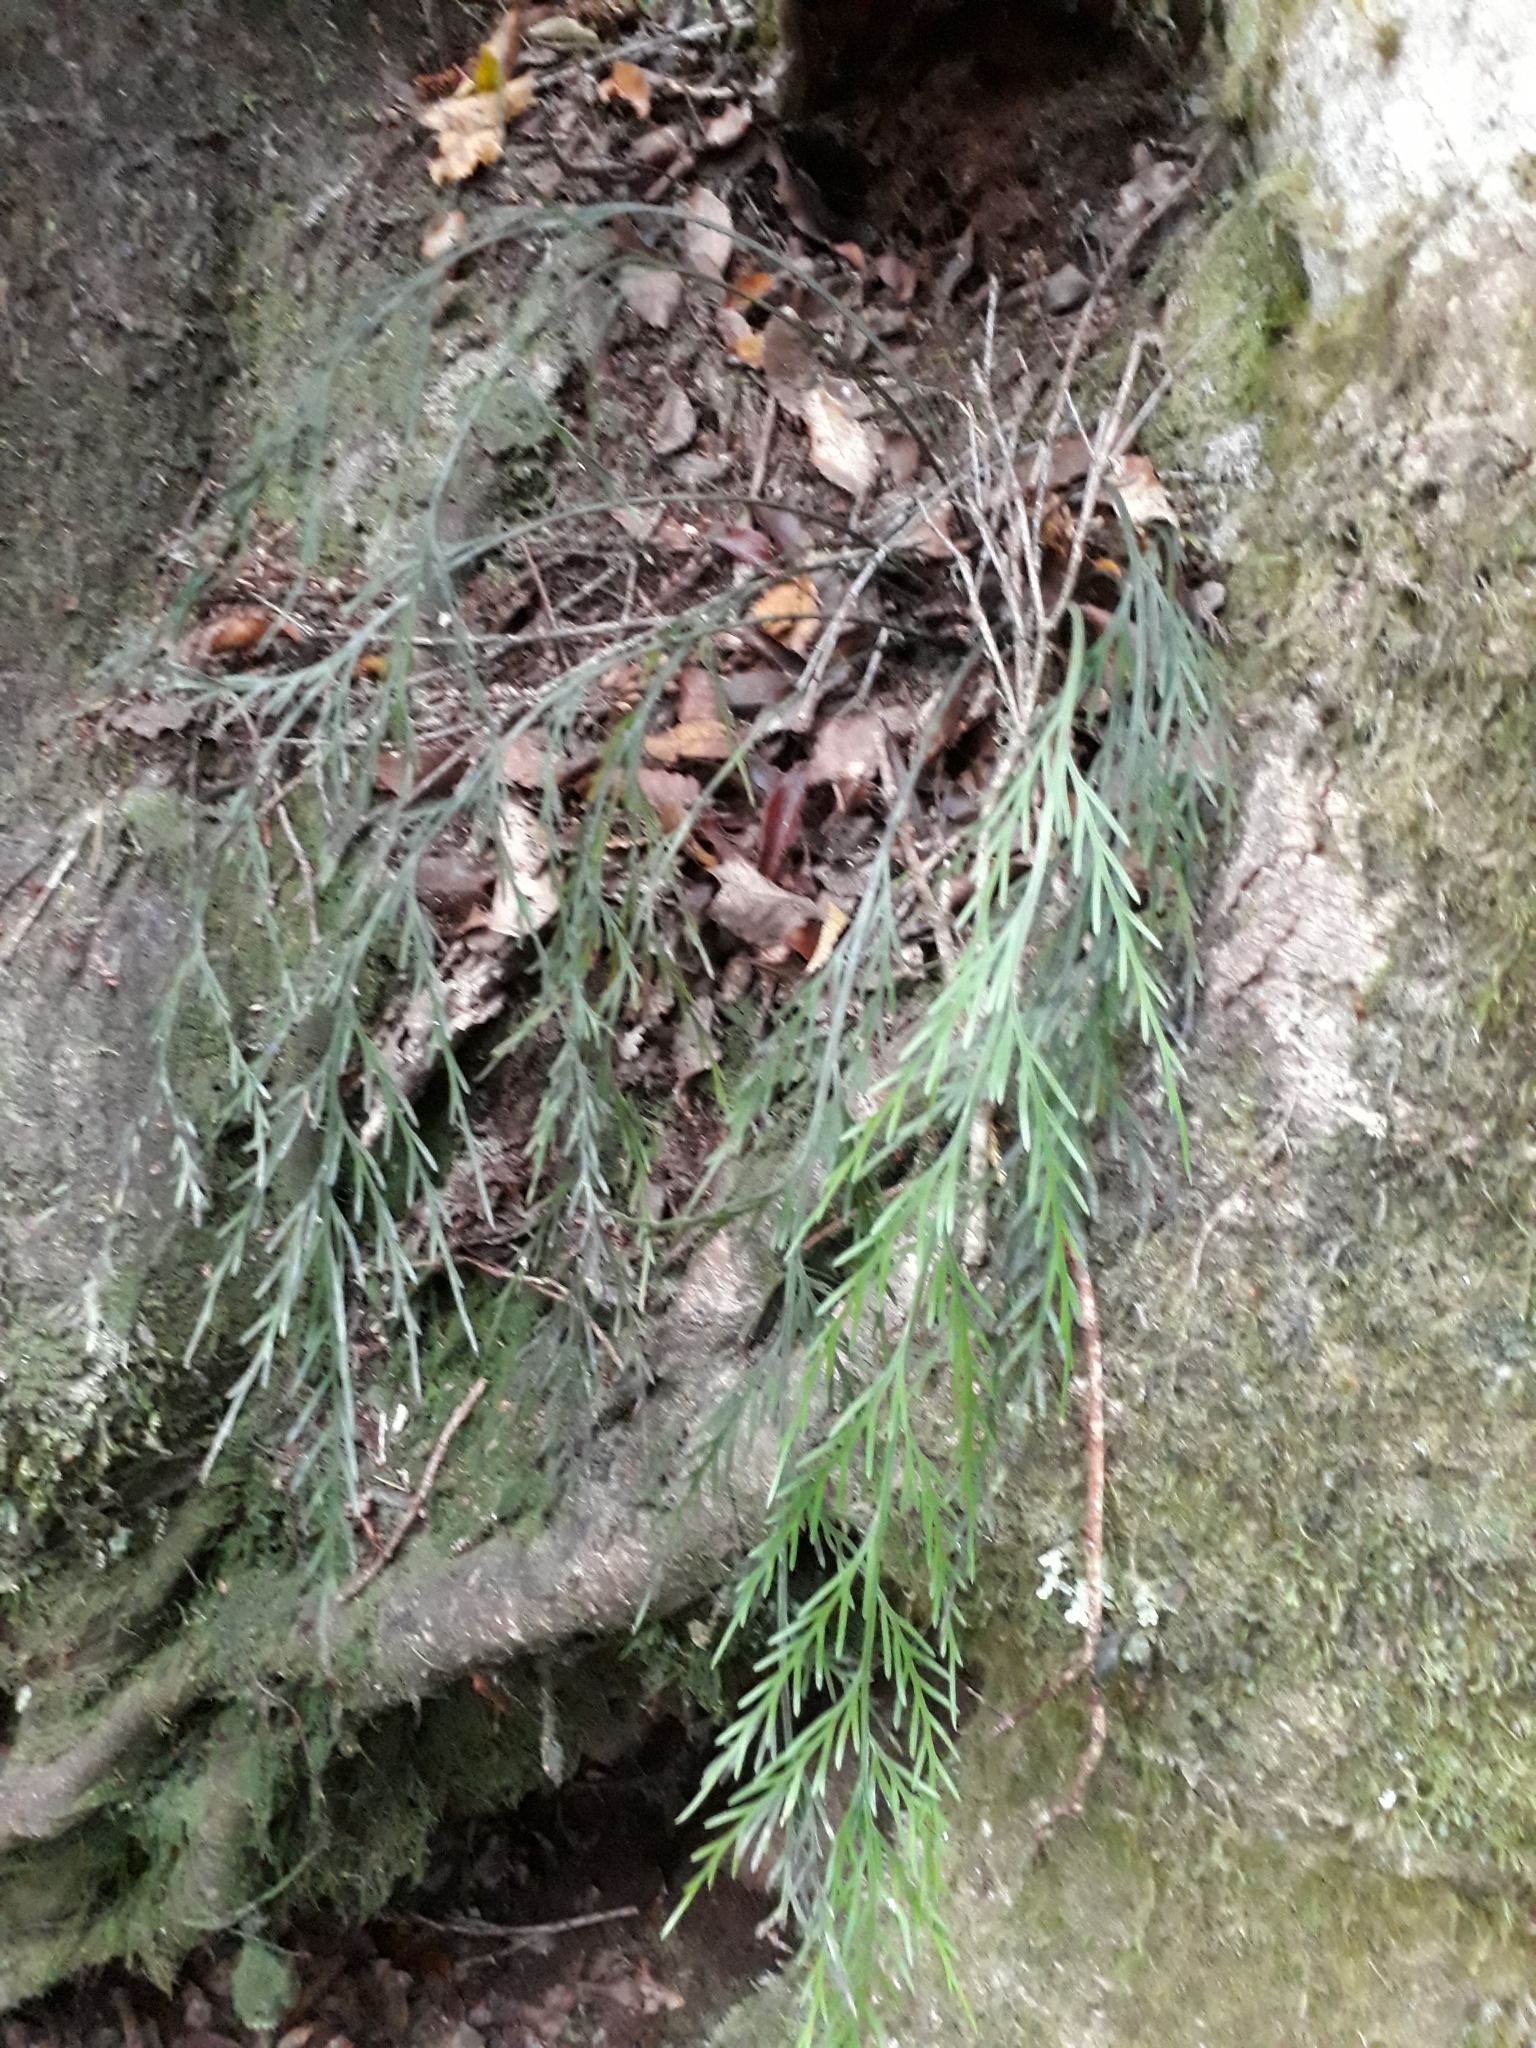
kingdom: Plantae
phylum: Tracheophyta
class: Polypodiopsida
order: Polypodiales
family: Aspleniaceae
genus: Asplenium
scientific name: Asplenium flaccidum
